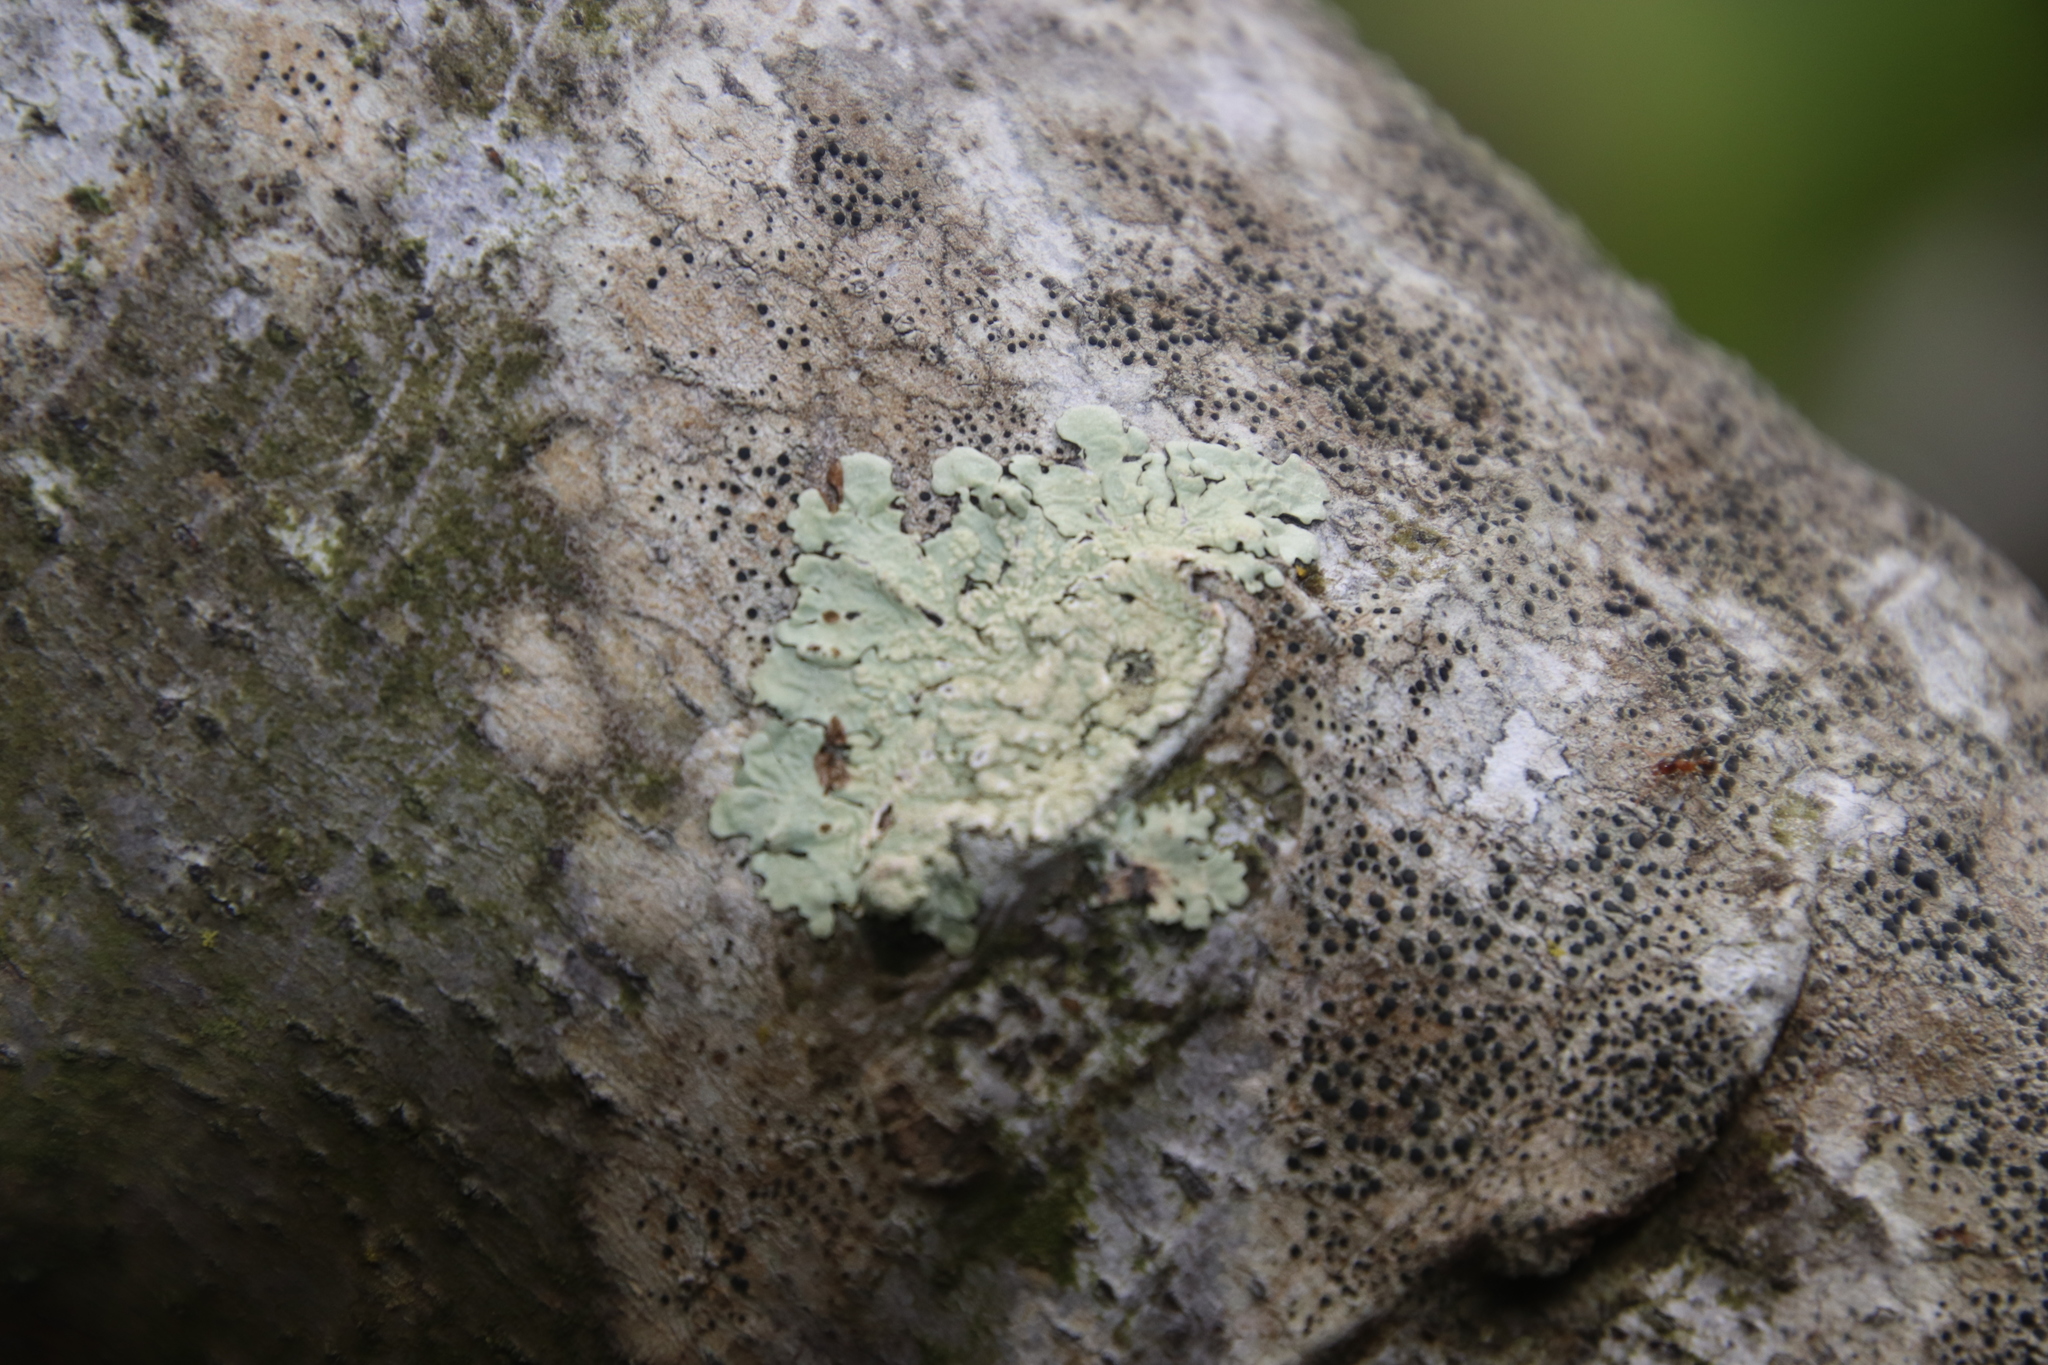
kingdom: Fungi
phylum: Ascomycota
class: Lecanoromycetes
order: Lecanorales
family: Parmeliaceae
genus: Flavoparmelia
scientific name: Flavoparmelia soredians
